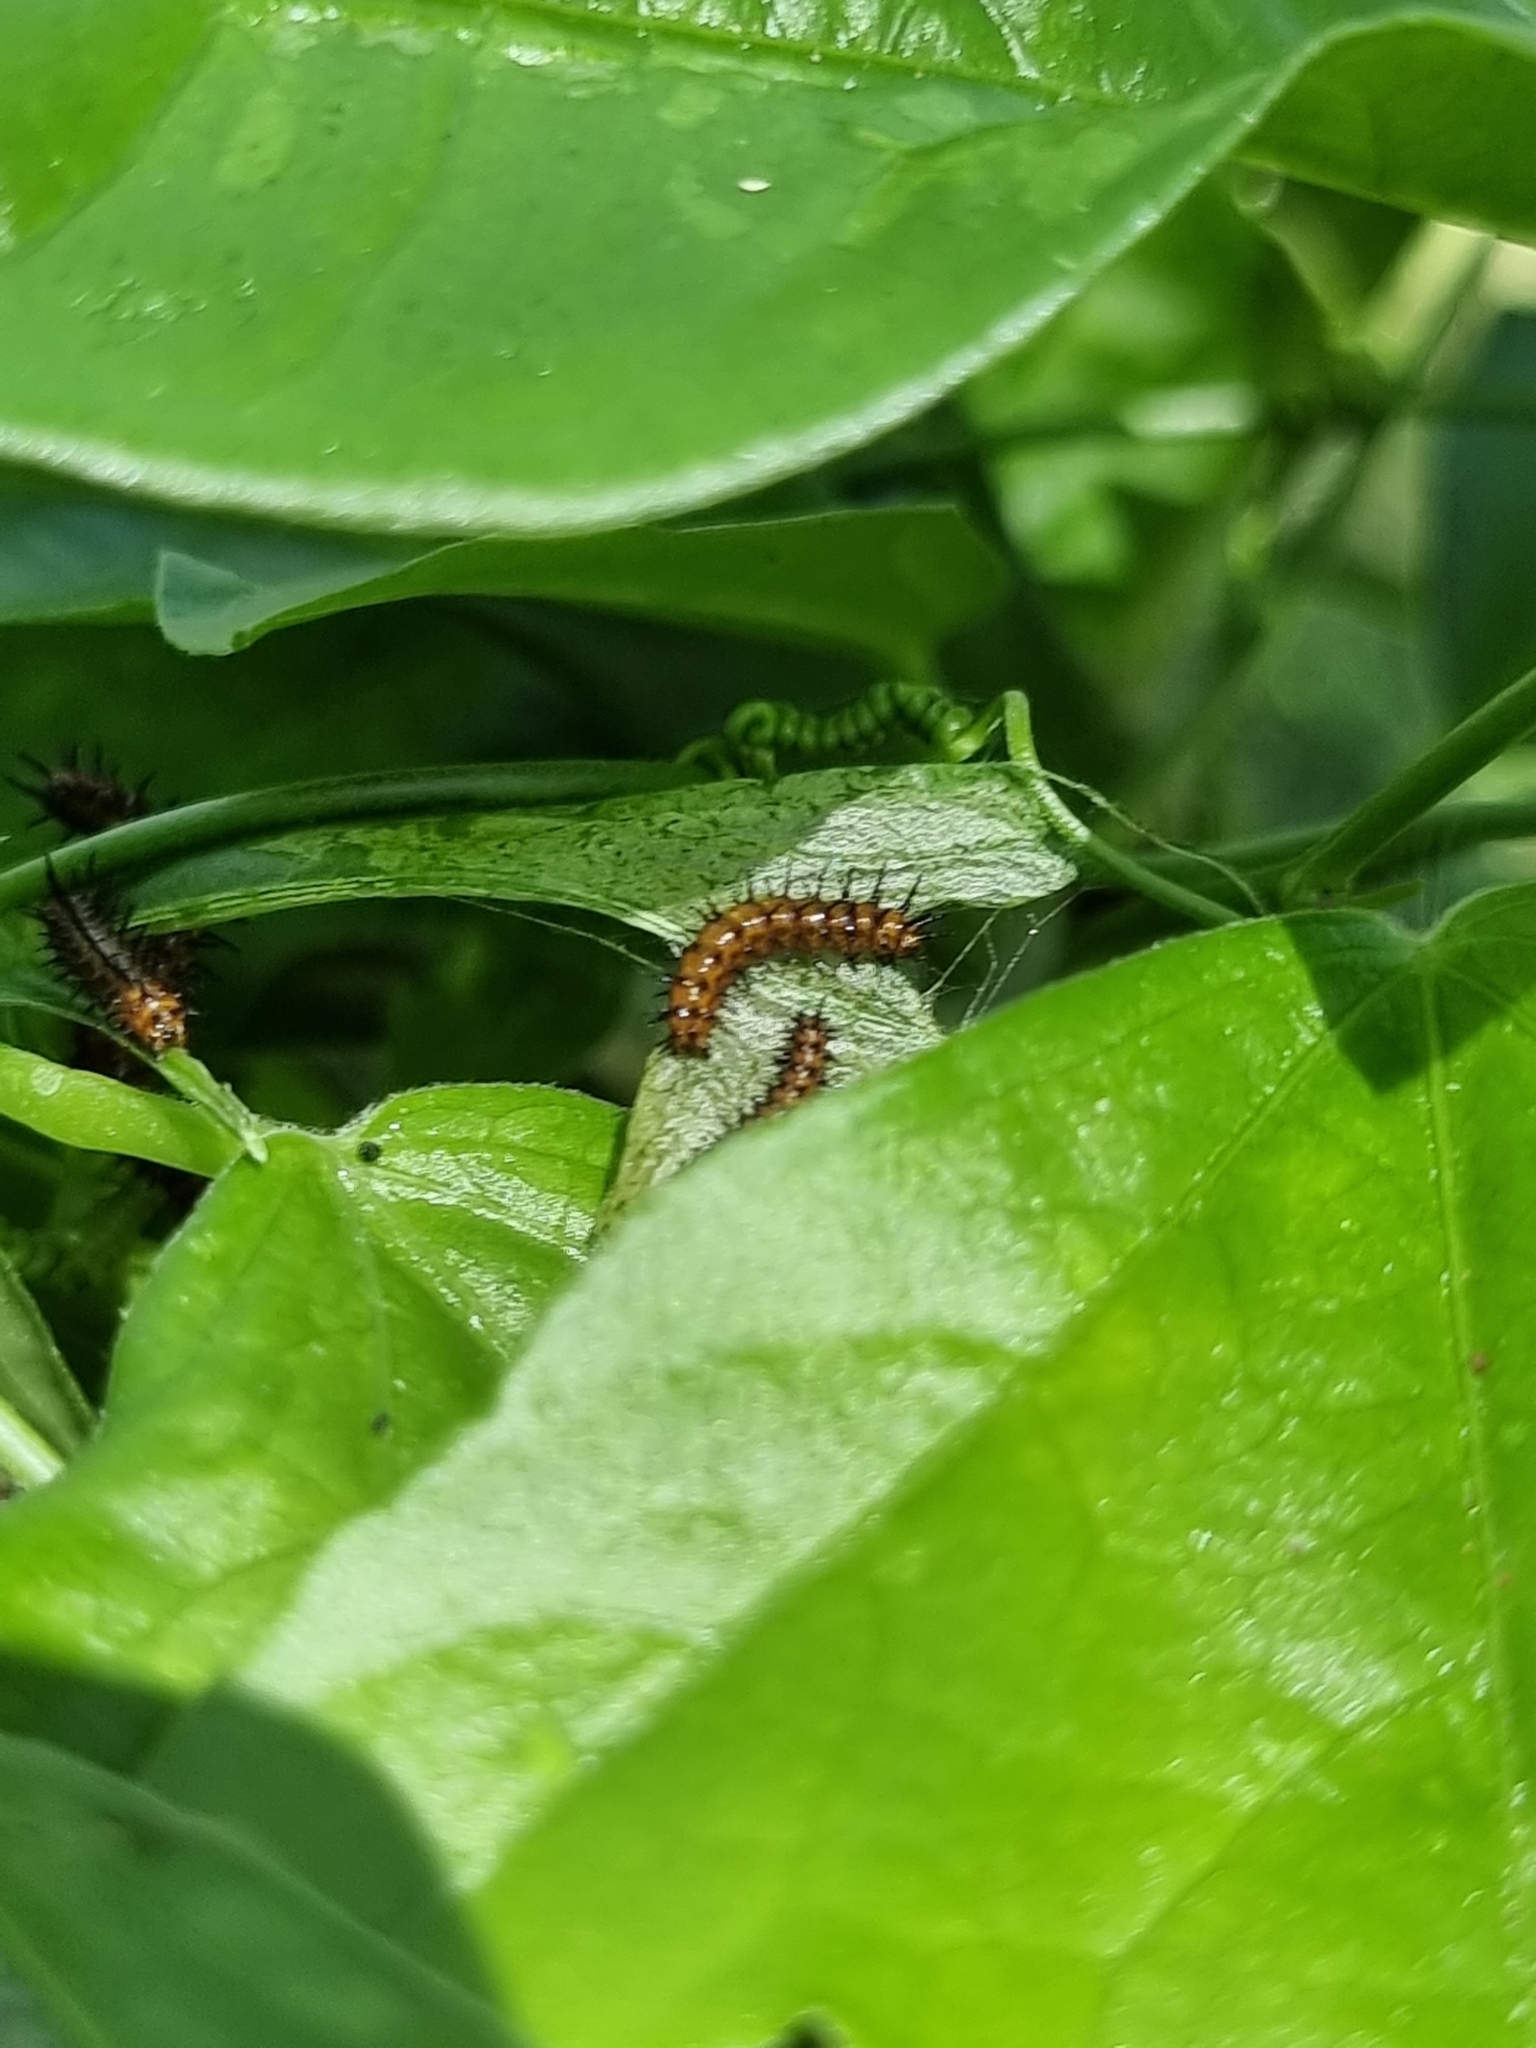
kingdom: Animalia
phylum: Arthropoda
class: Insecta
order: Lepidoptera
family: Nymphalidae
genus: Acraea
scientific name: Acraea terpsicore
